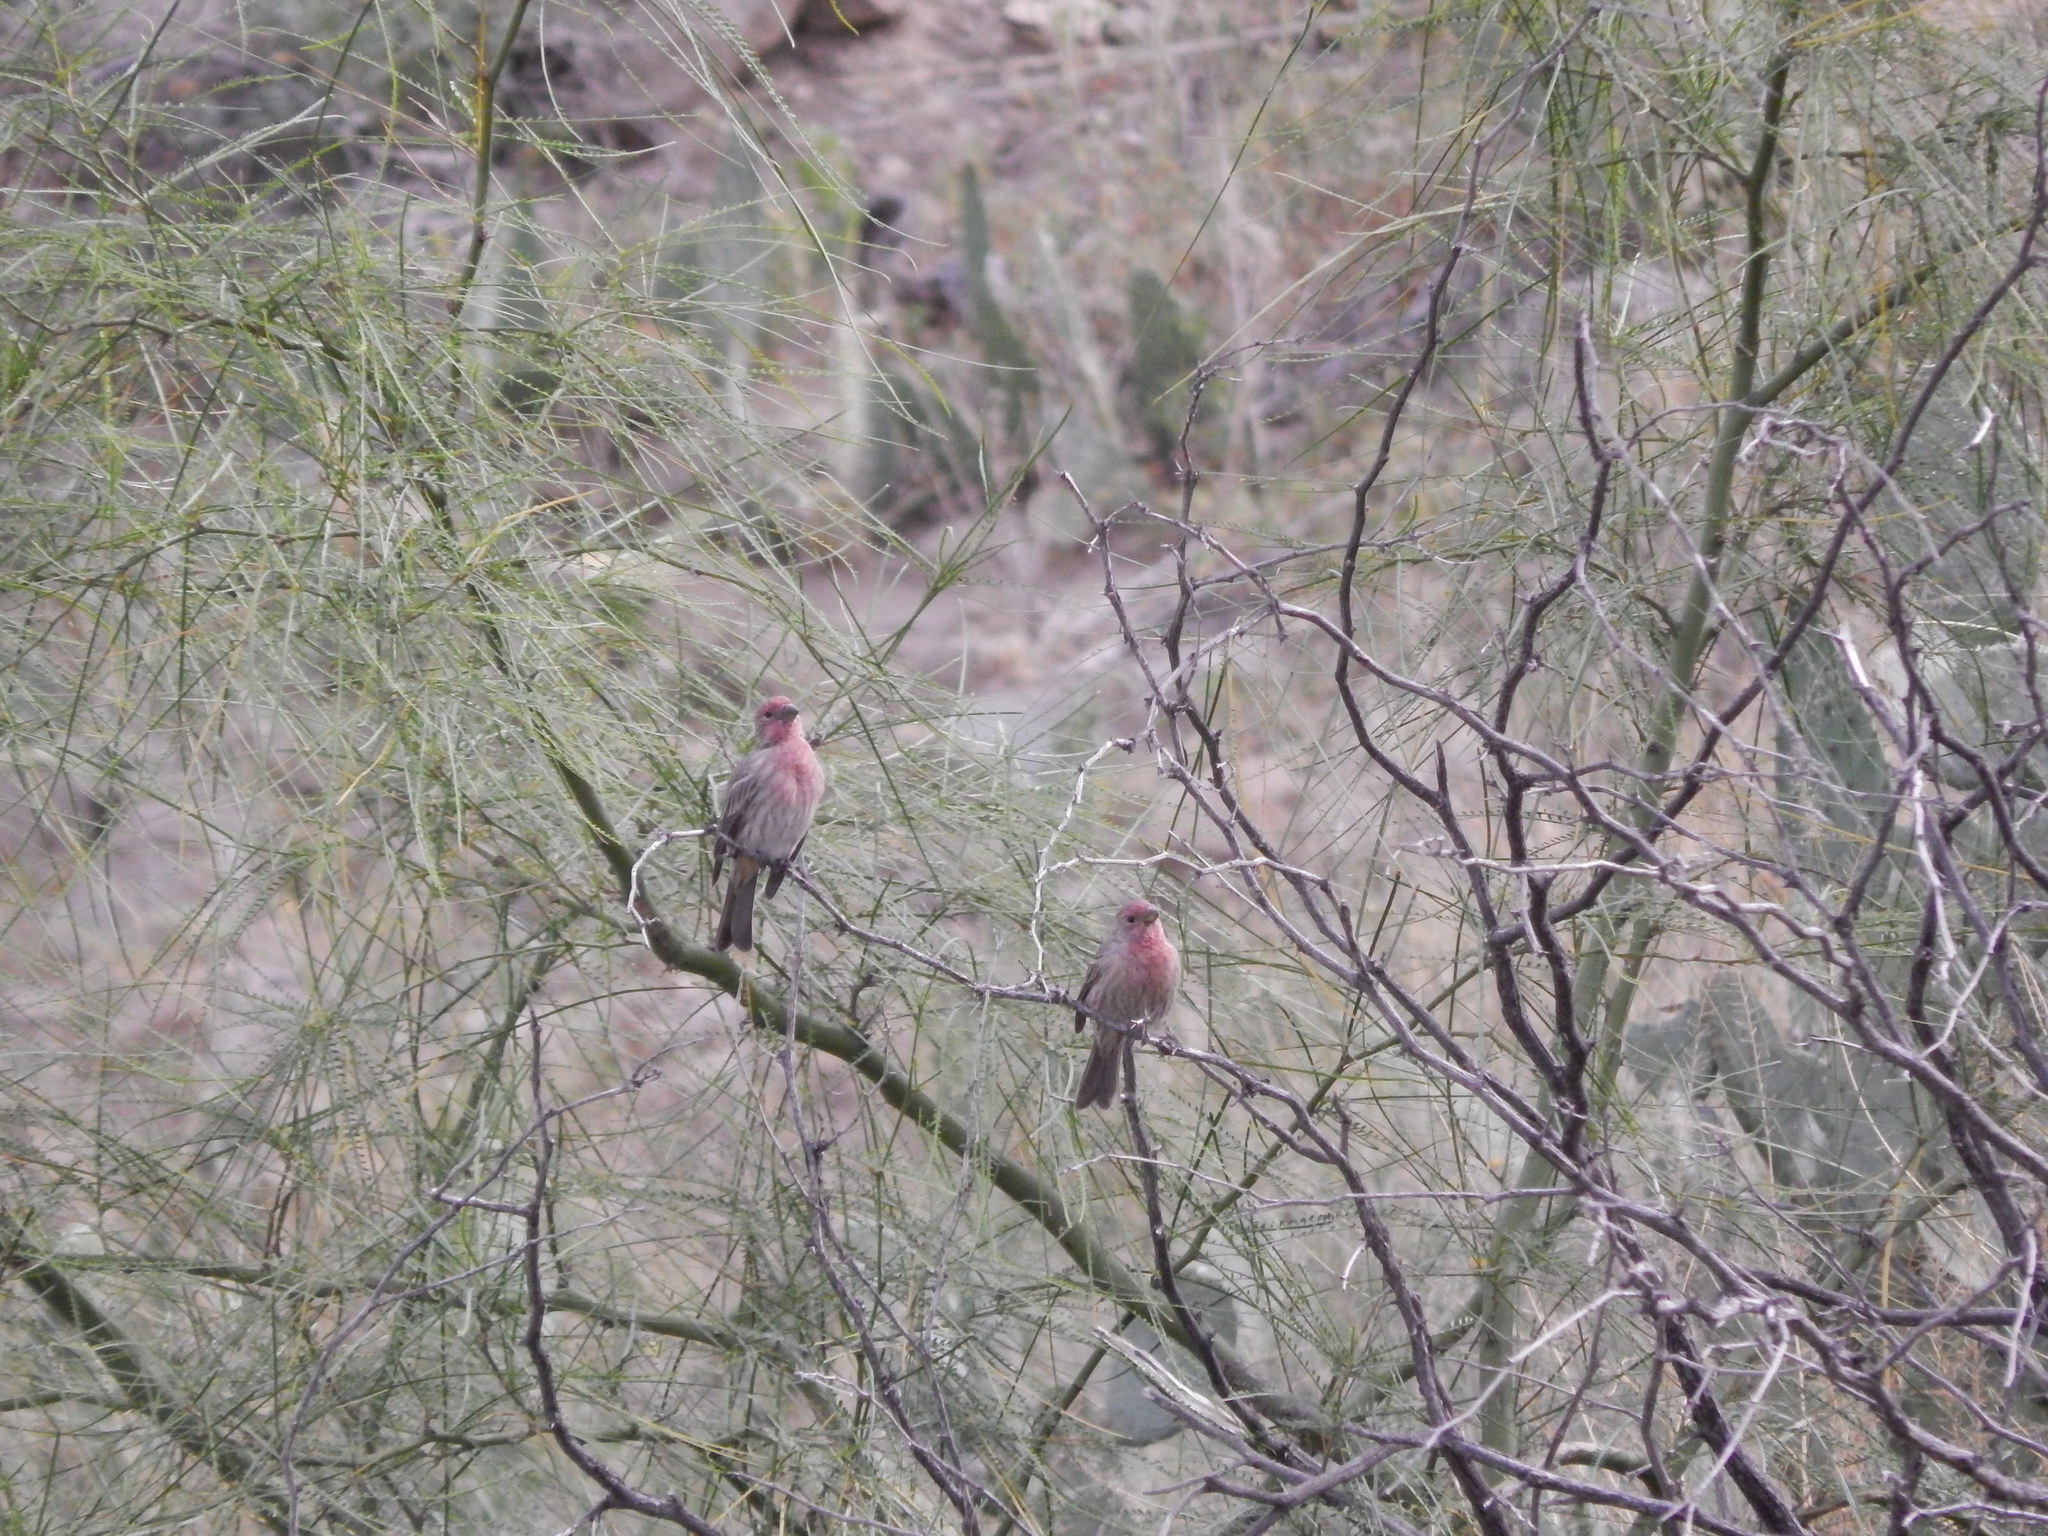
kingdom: Animalia
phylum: Chordata
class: Aves
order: Passeriformes
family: Fringillidae
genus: Haemorhous
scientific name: Haemorhous mexicanus
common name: House finch
